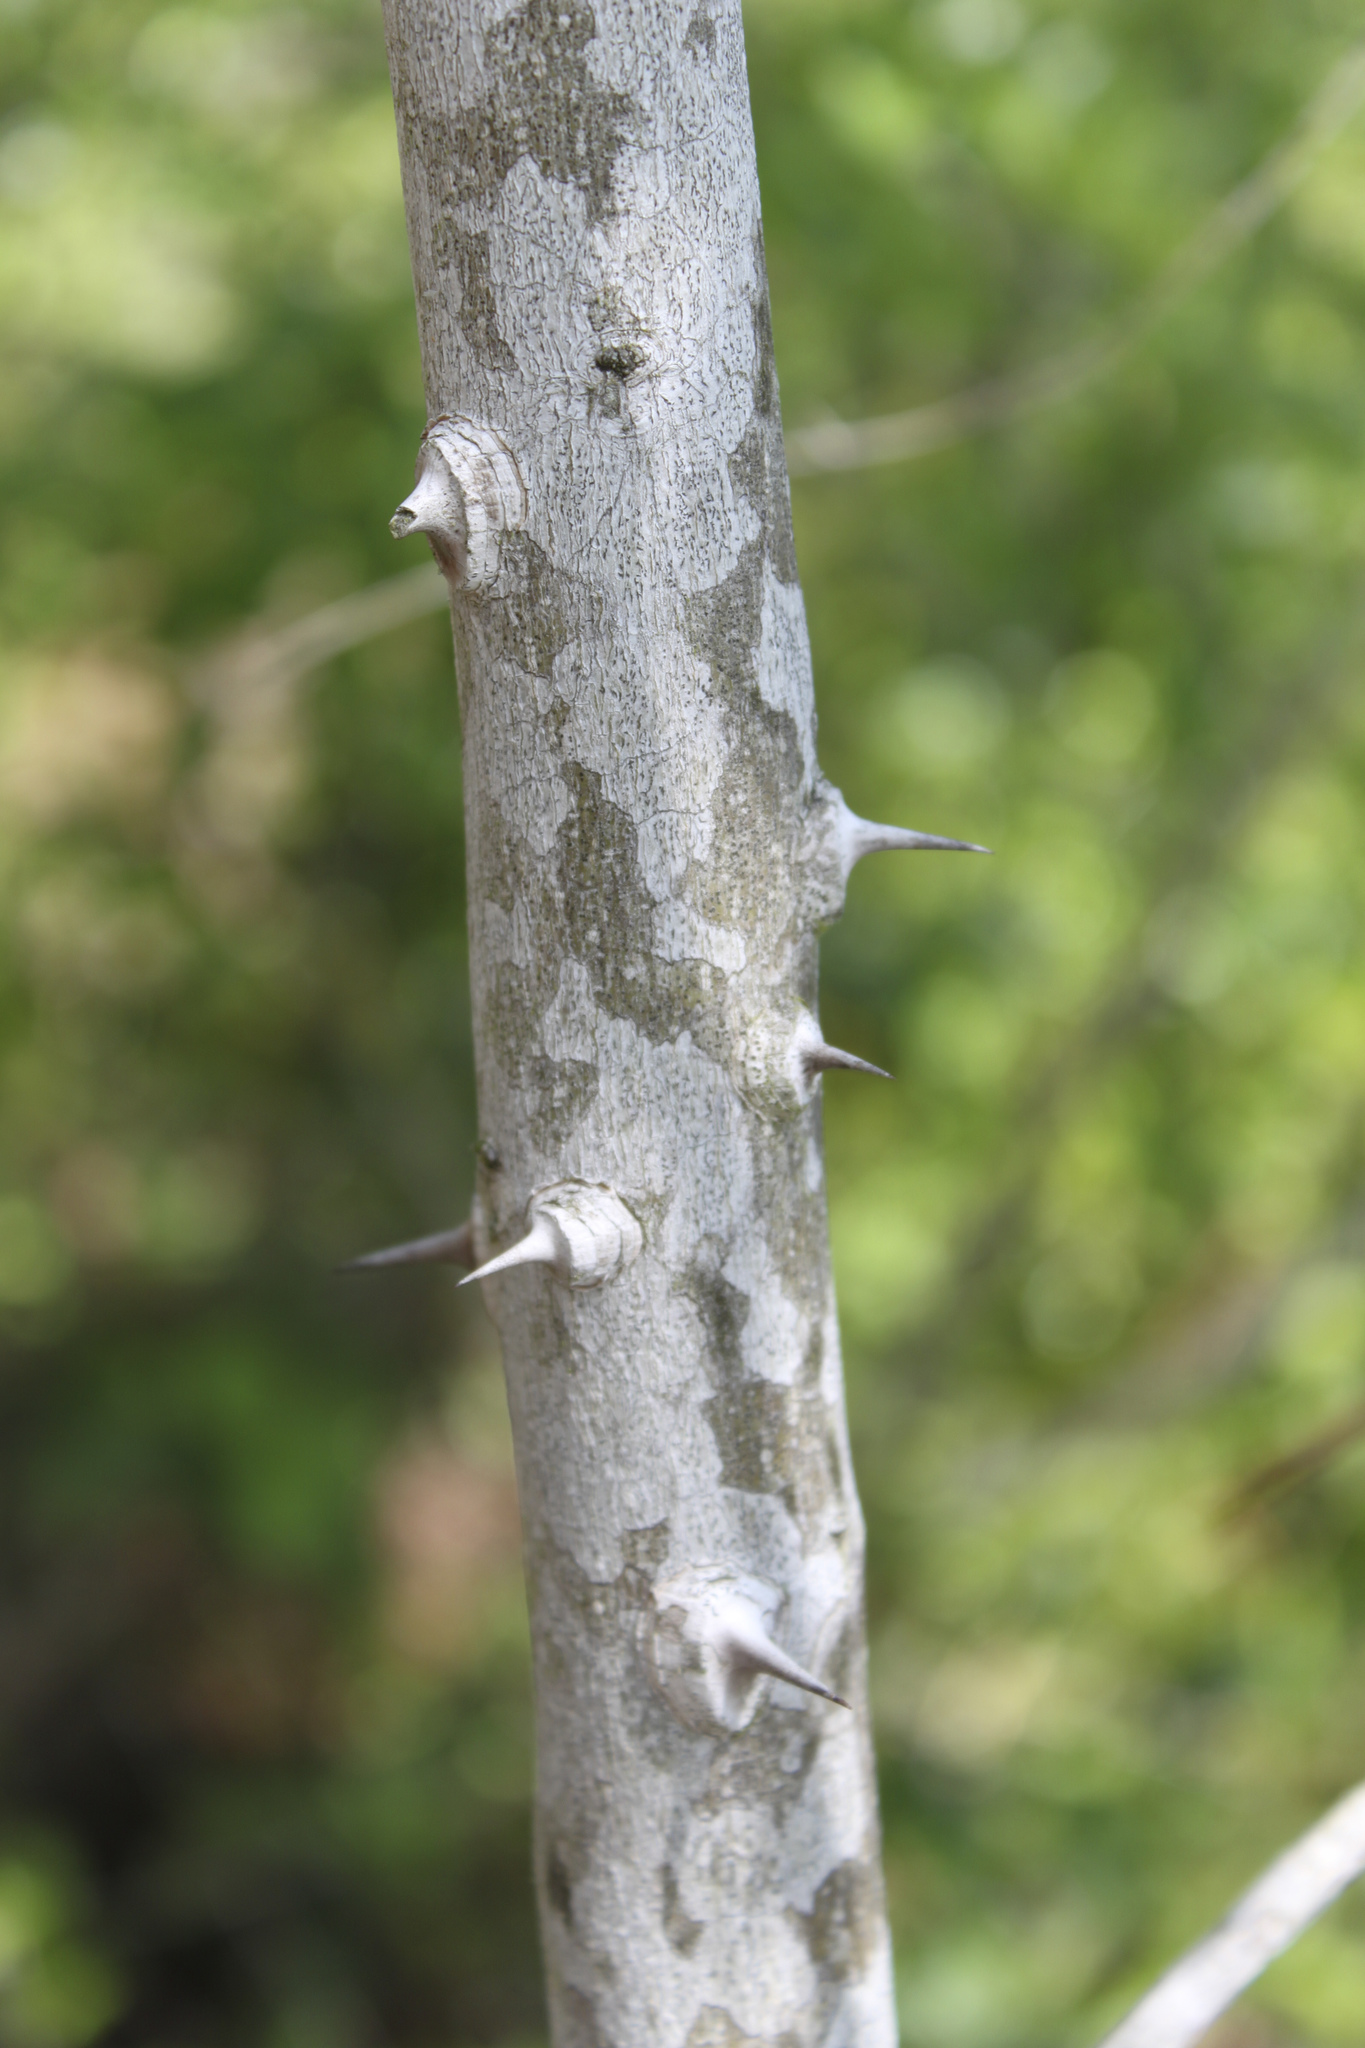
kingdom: Plantae
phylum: Tracheophyta
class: Magnoliopsida
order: Sapindales
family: Rutaceae
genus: Zanthoxylum
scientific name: Zanthoxylum clava-herculis
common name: Hercules'-club
